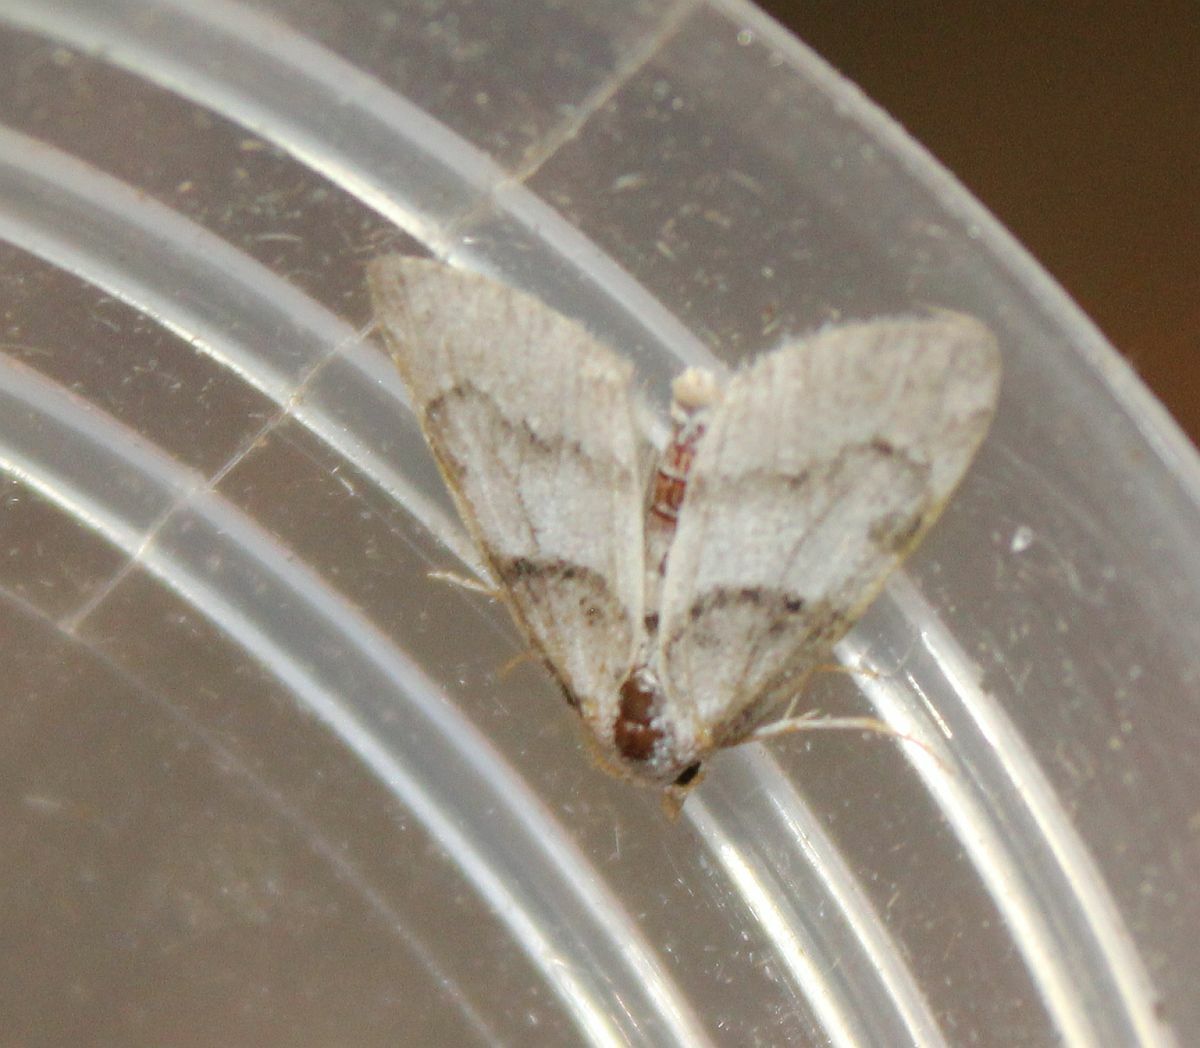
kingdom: Animalia
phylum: Arthropoda
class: Insecta
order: Lepidoptera
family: Nolidae
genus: Nola
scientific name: Nola cucullatella
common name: Short-cloaked moth
